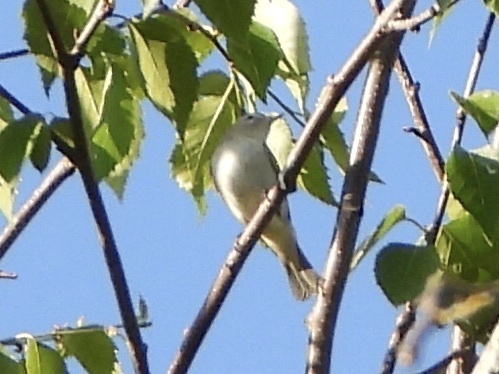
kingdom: Animalia
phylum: Chordata
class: Aves
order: Passeriformes
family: Vireonidae
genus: Vireo
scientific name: Vireo gilvus
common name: Warbling vireo
